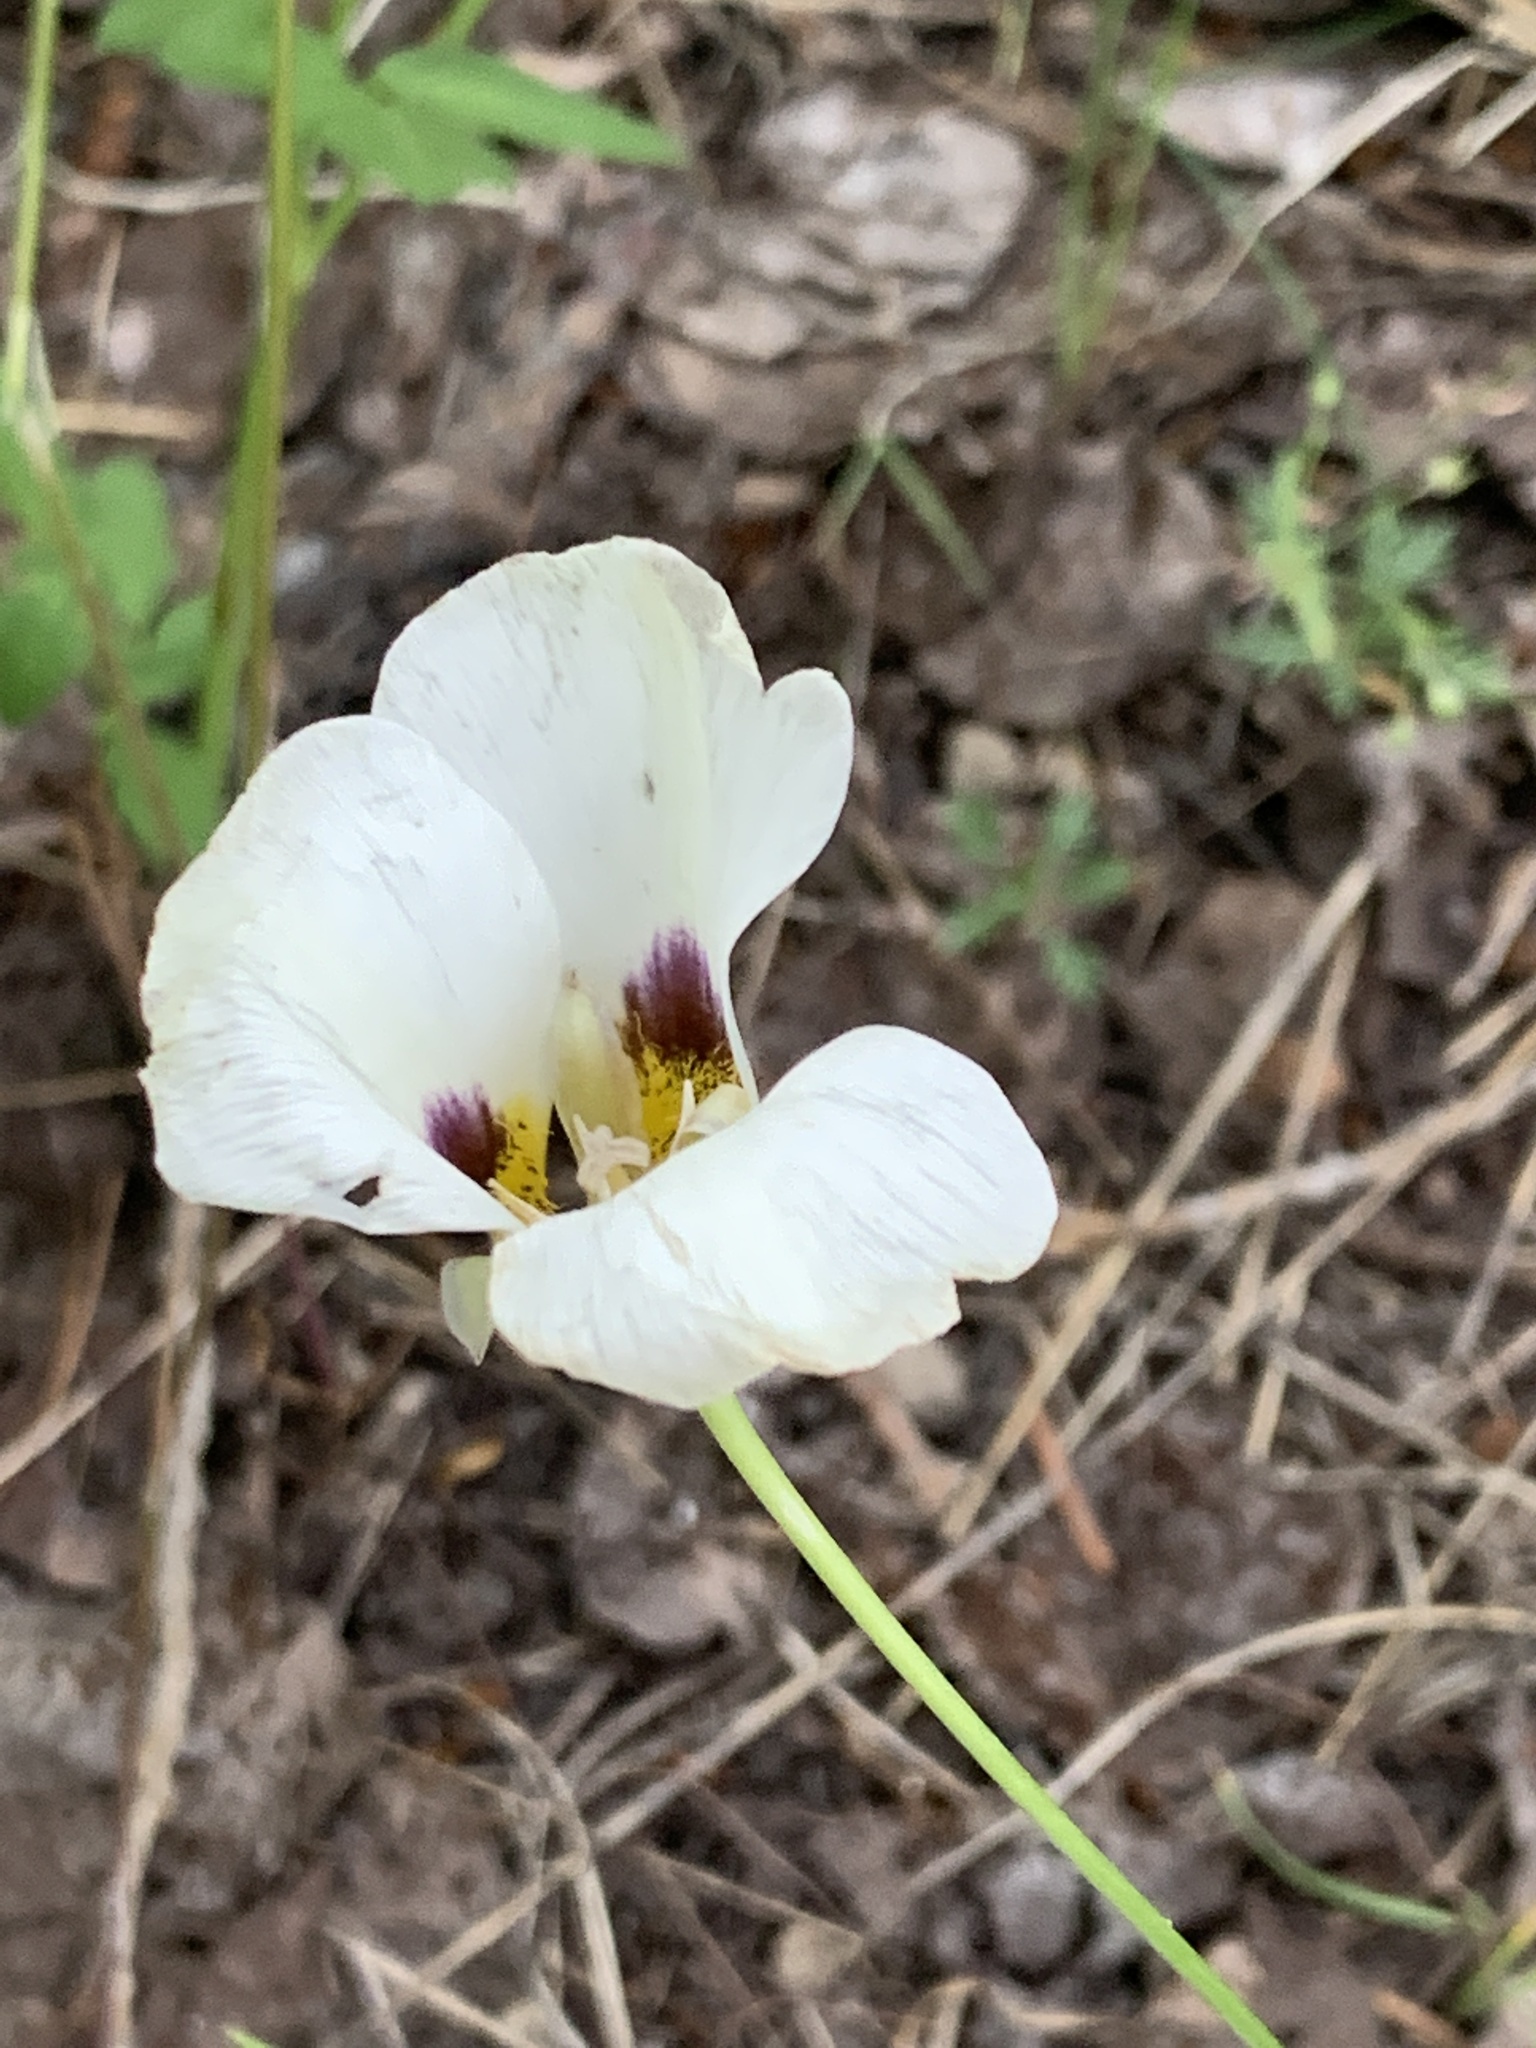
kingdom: Plantae
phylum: Tracheophyta
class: Liliopsida
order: Liliales
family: Liliaceae
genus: Calochortus
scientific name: Calochortus leichtlinii
